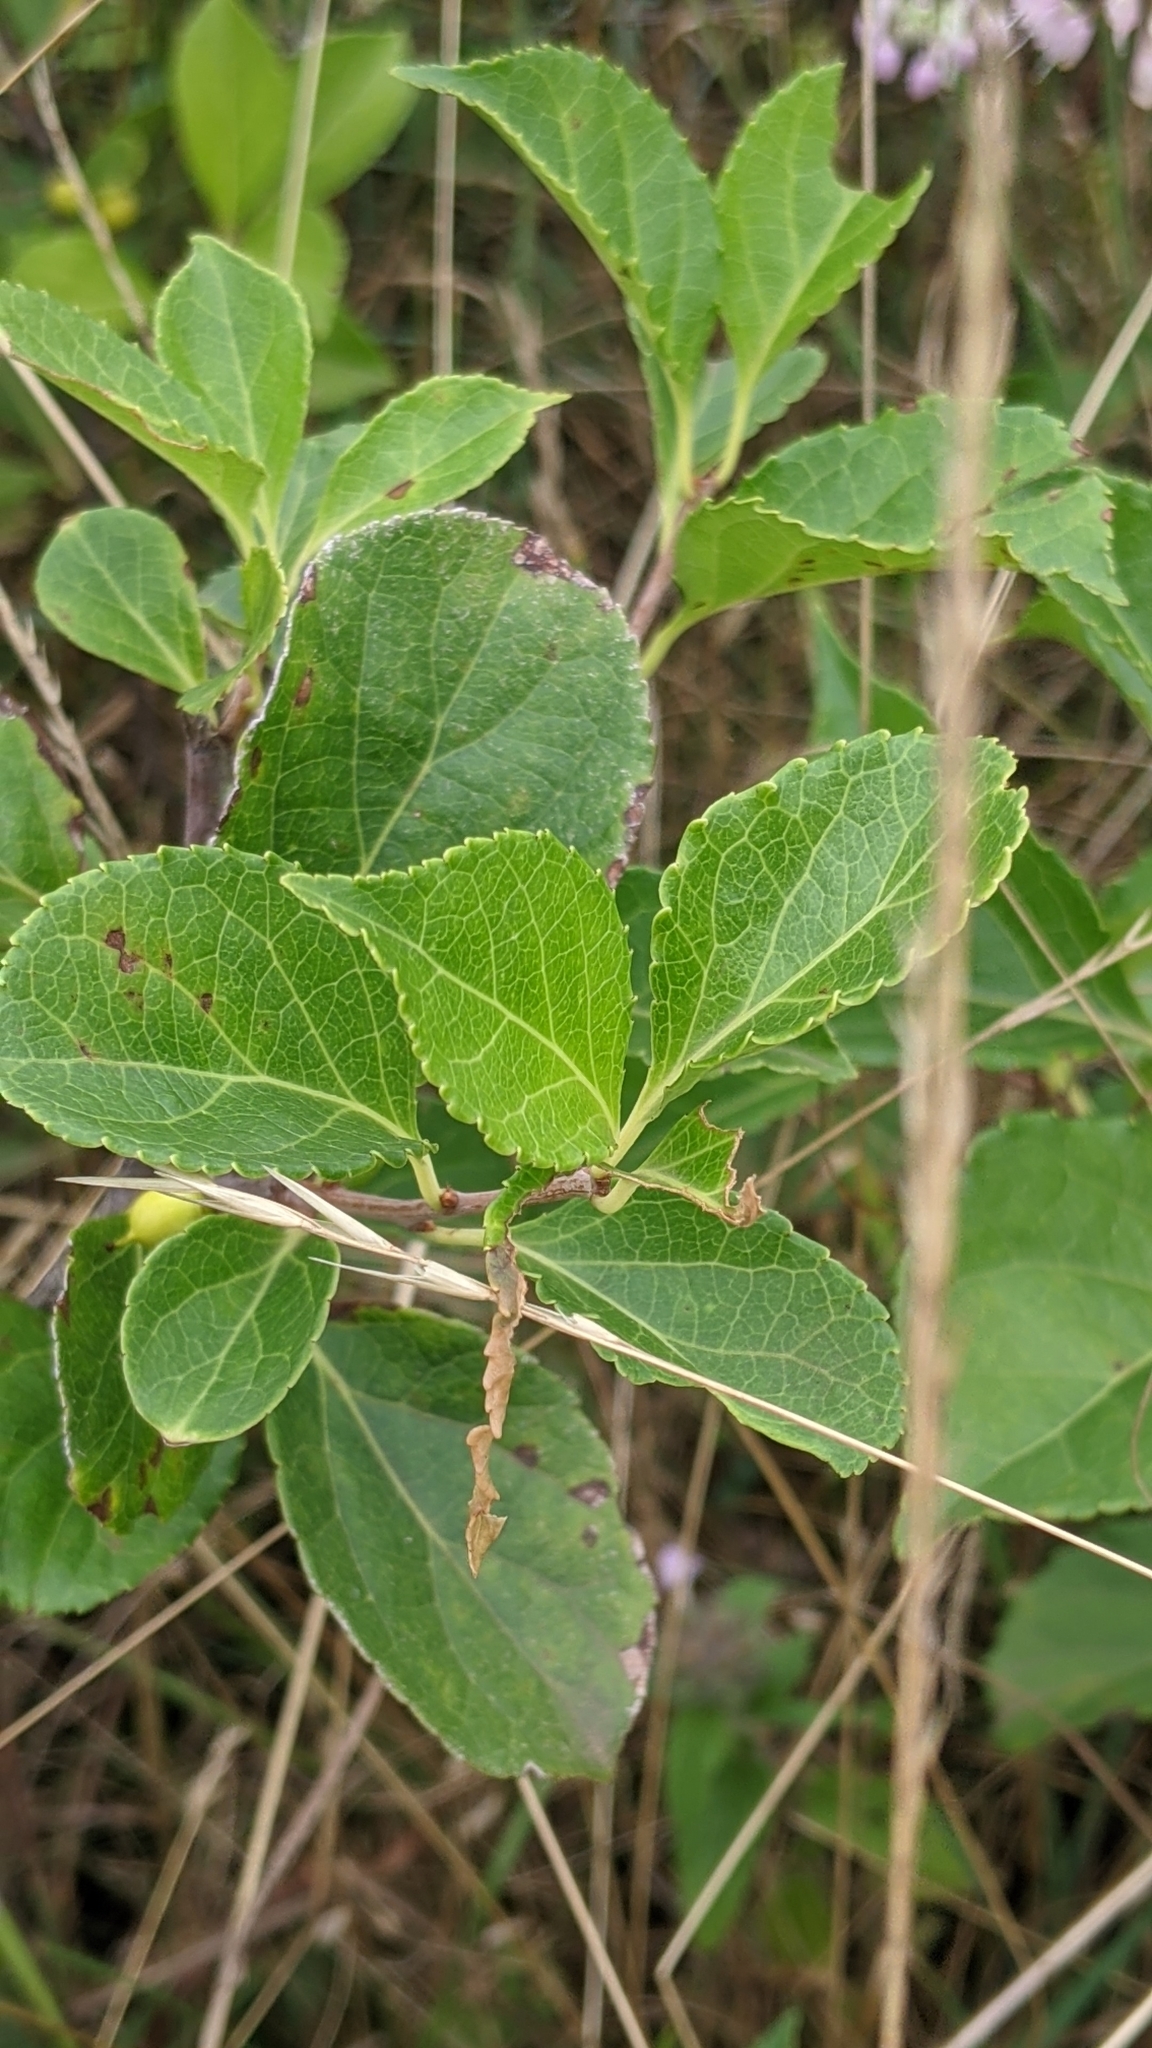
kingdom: Plantae
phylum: Tracheophyta
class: Magnoliopsida
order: Celastrales
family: Celastraceae
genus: Celastrus
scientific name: Celastrus orbiculatus
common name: Oriental bittersweet
